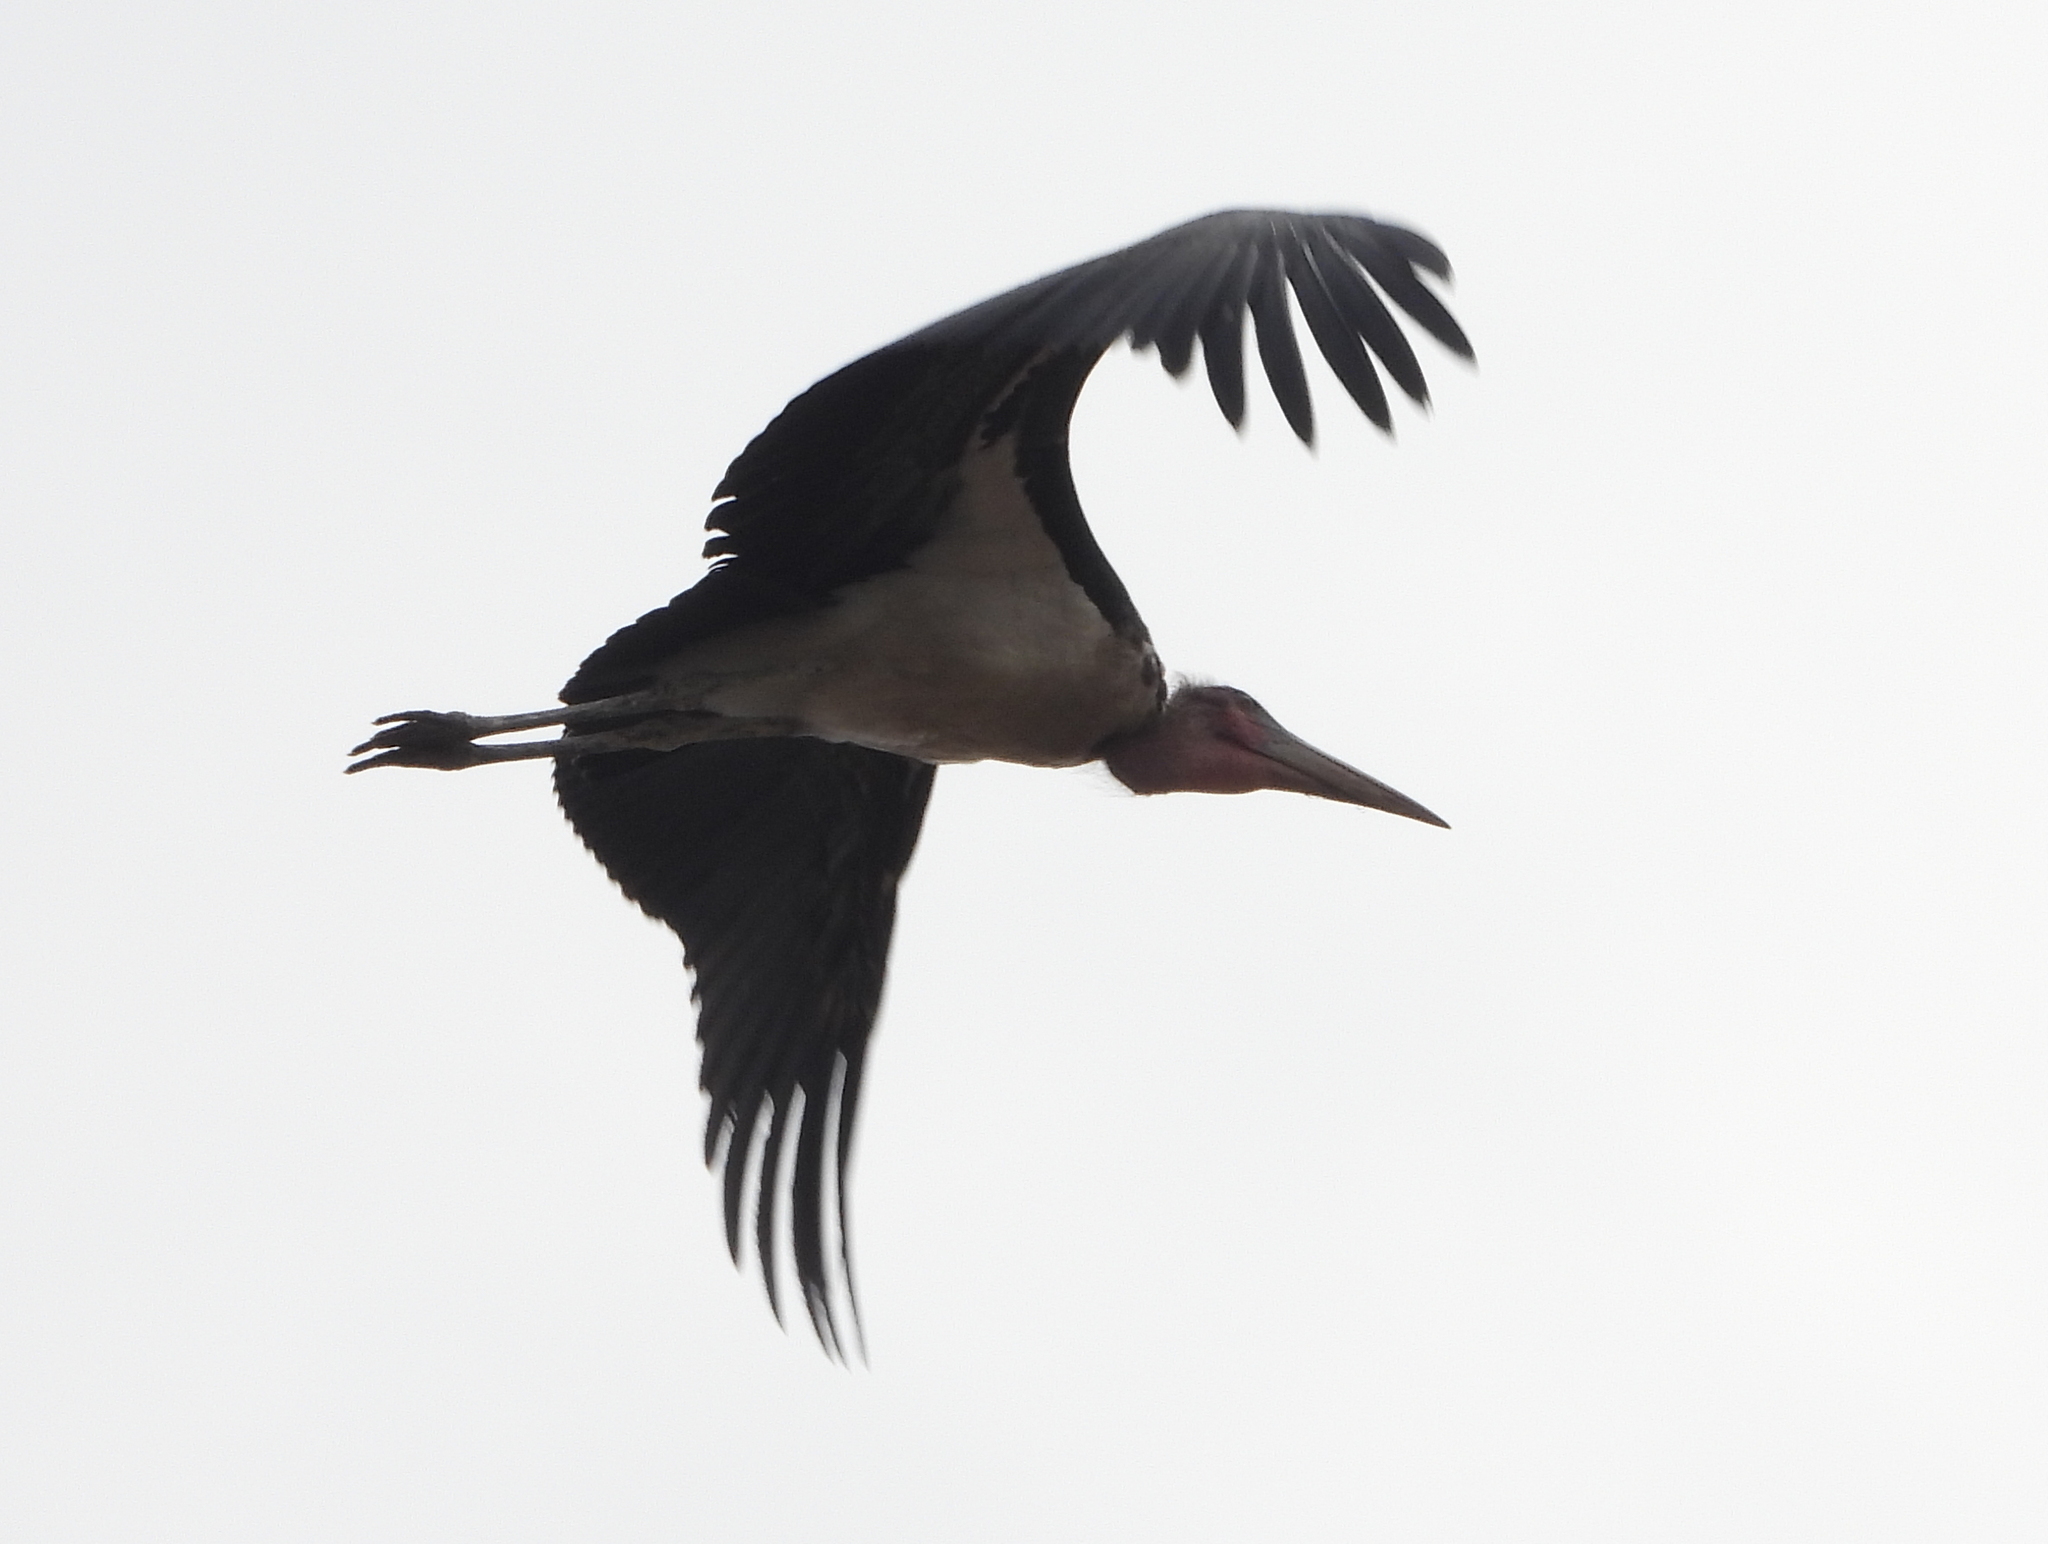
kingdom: Animalia
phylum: Chordata
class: Aves
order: Ciconiiformes
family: Ciconiidae
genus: Leptoptilos
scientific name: Leptoptilos crumenifer
